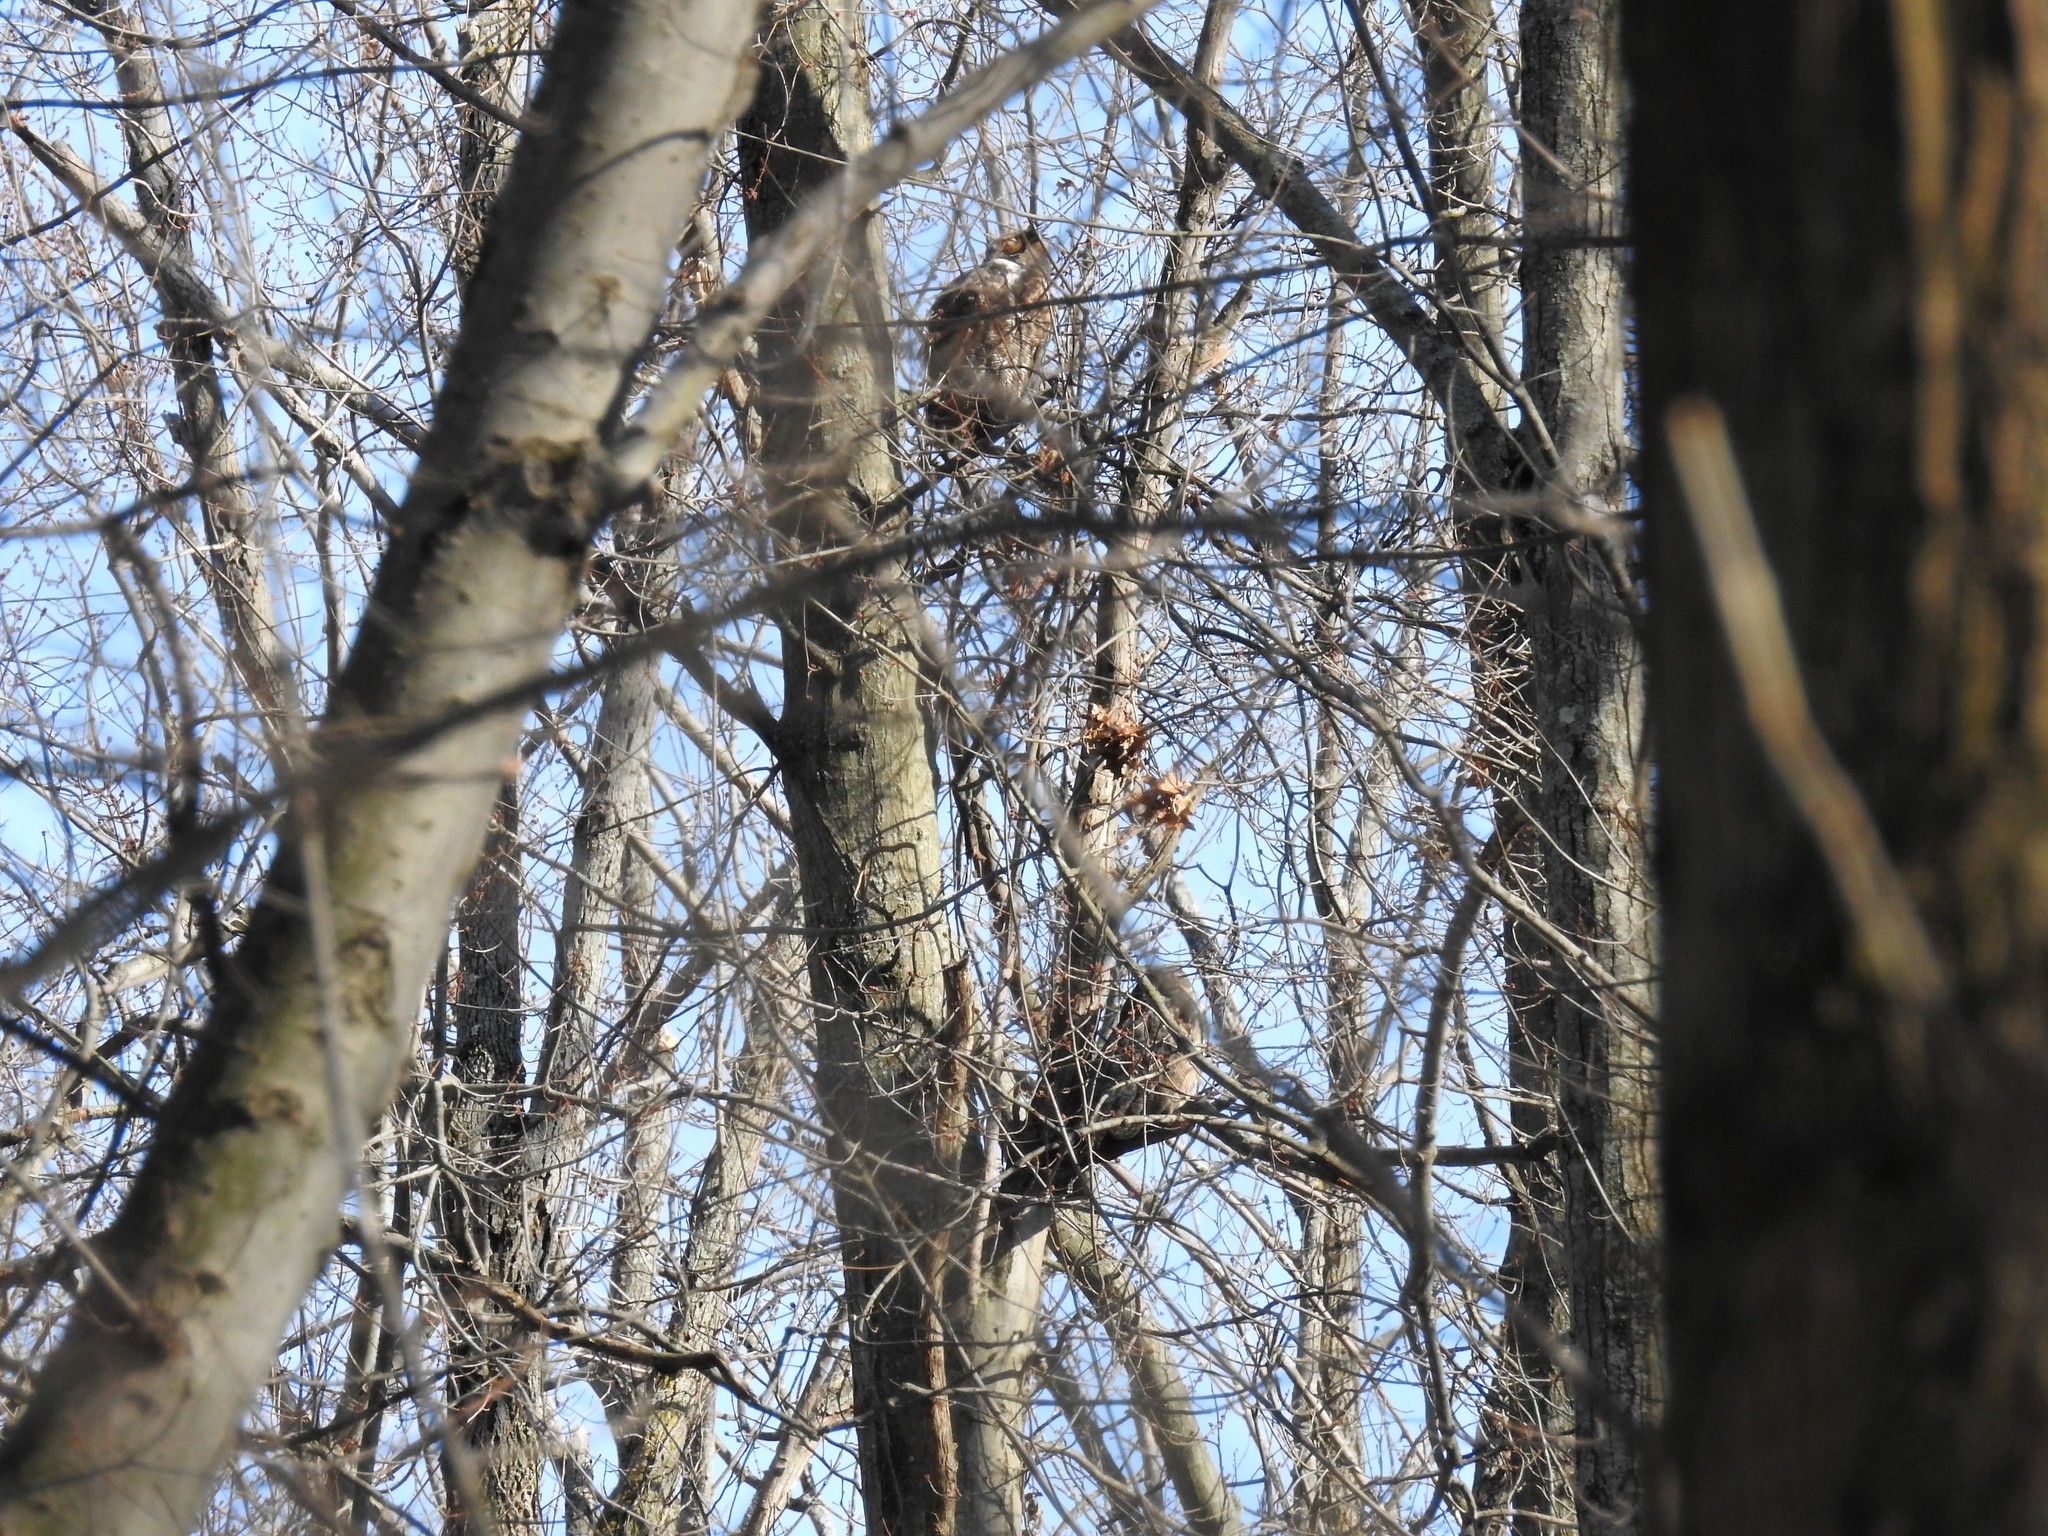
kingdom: Animalia
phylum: Chordata
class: Aves
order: Strigiformes
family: Strigidae
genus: Bubo
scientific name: Bubo virginianus
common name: Great horned owl
